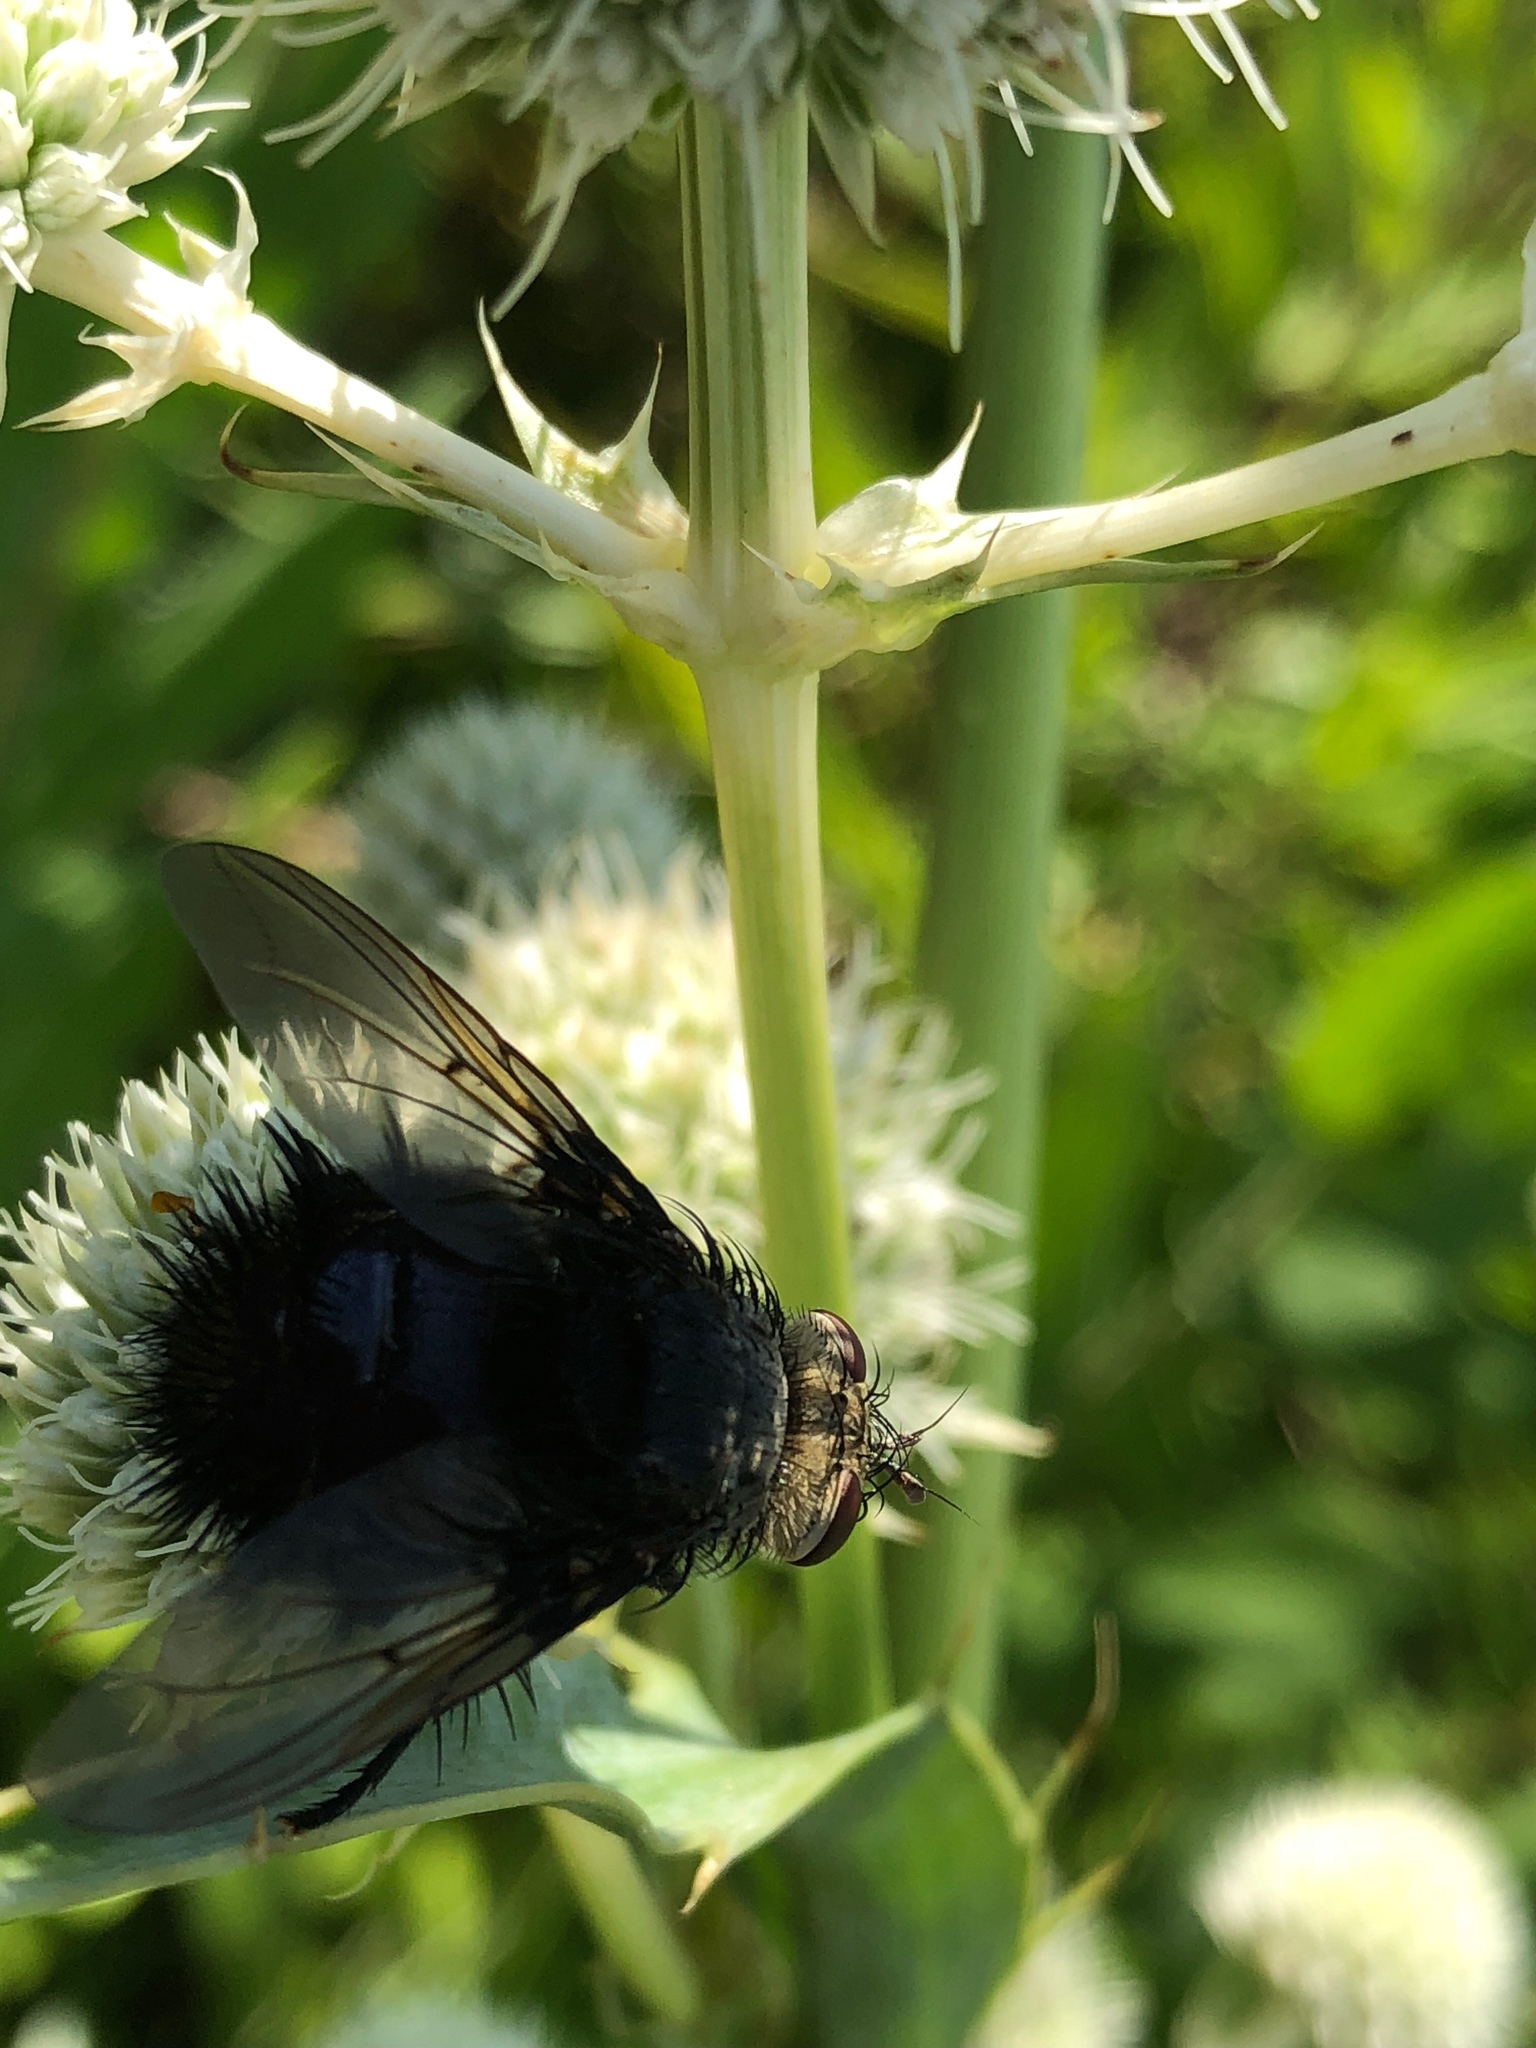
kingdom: Animalia
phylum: Arthropoda
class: Insecta
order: Diptera
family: Tachinidae
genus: Juriniopsis
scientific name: Juriniopsis adusta
